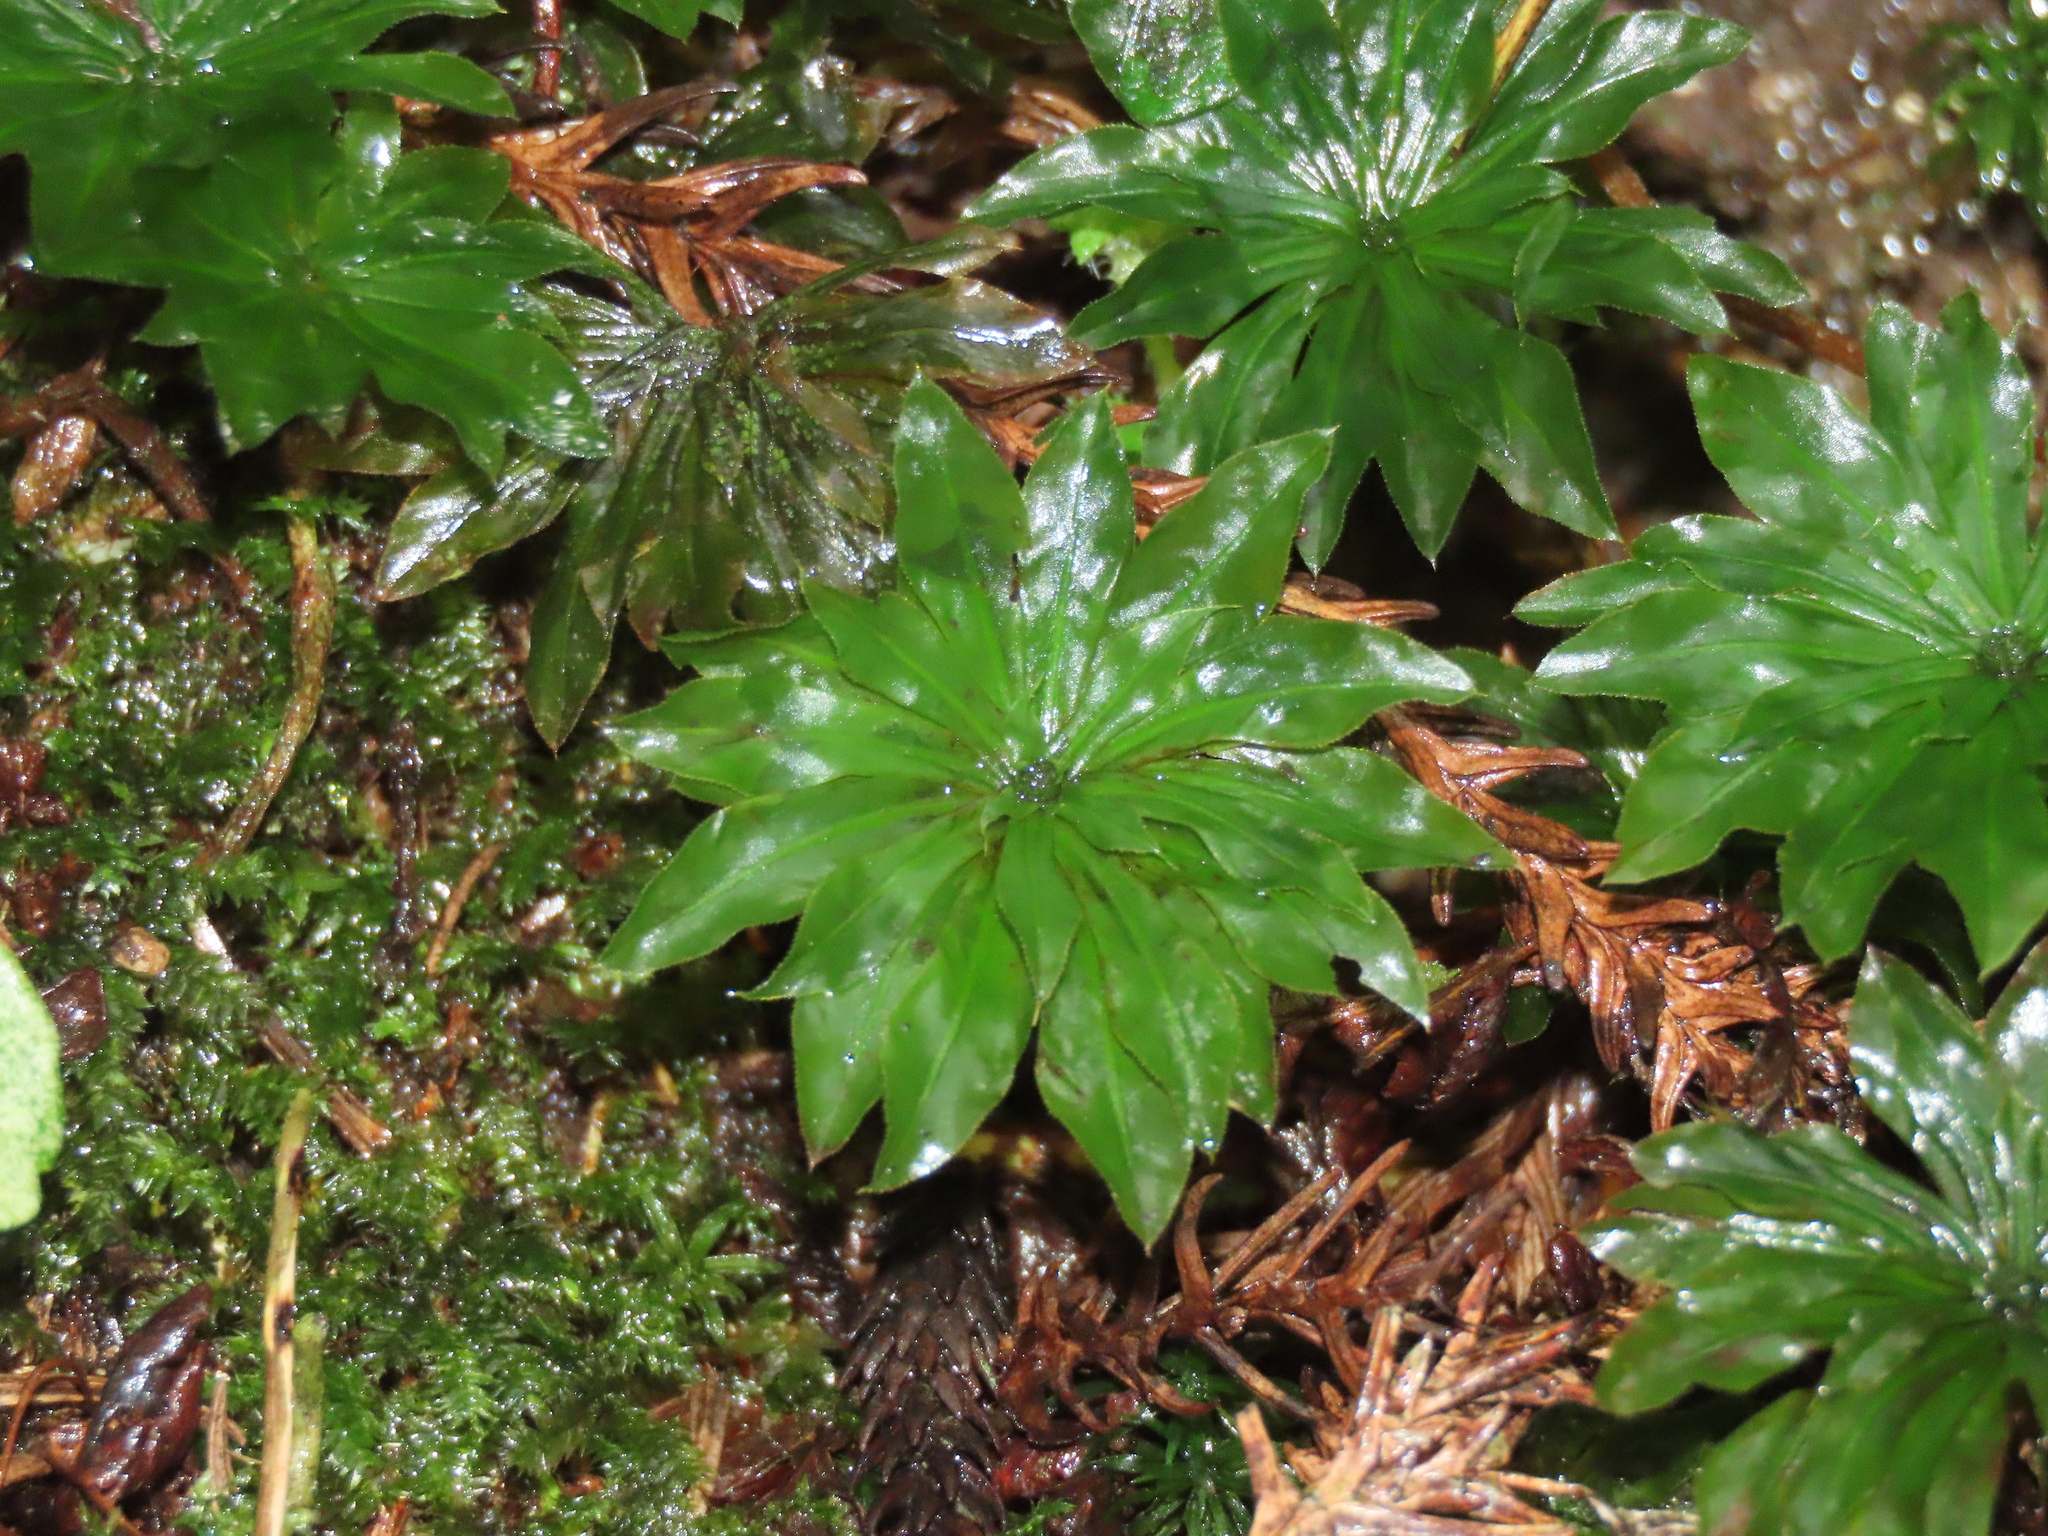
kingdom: Plantae
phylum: Bryophyta
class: Bryopsida
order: Bryales
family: Bryaceae
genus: Rhodobryum
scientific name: Rhodobryum giganteum
